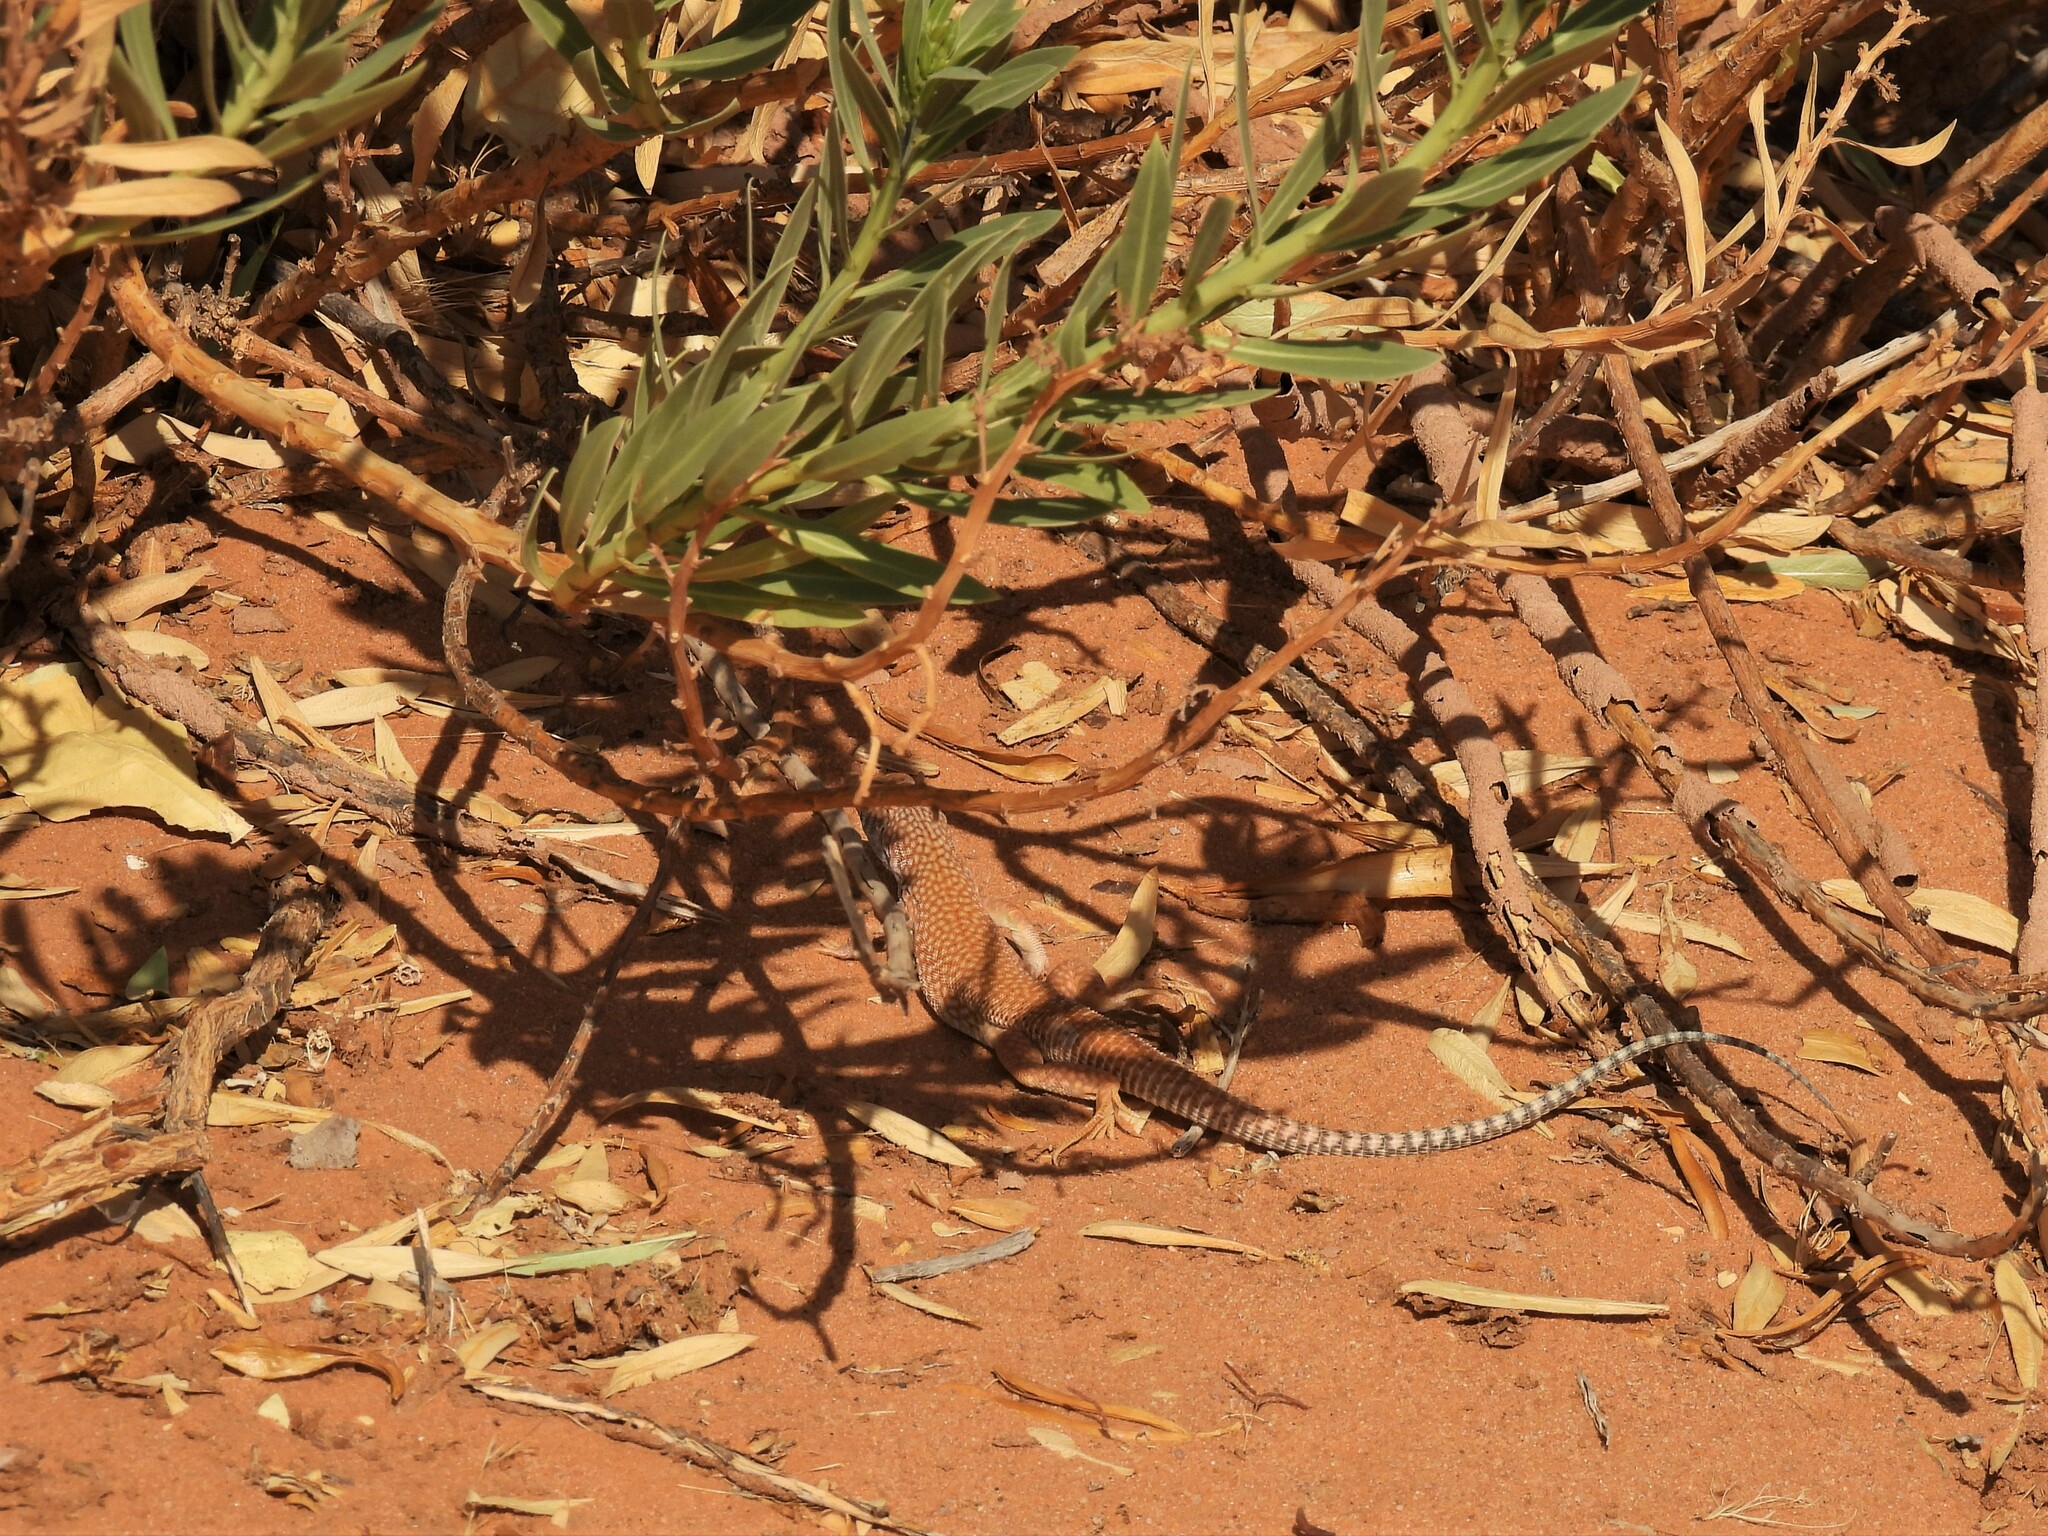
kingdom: Animalia
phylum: Chordata
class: Squamata
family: Lacertidae
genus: Acanthodactylus
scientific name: Acanthodactylus schmidti
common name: Schmidt's fringe-toed lizard
